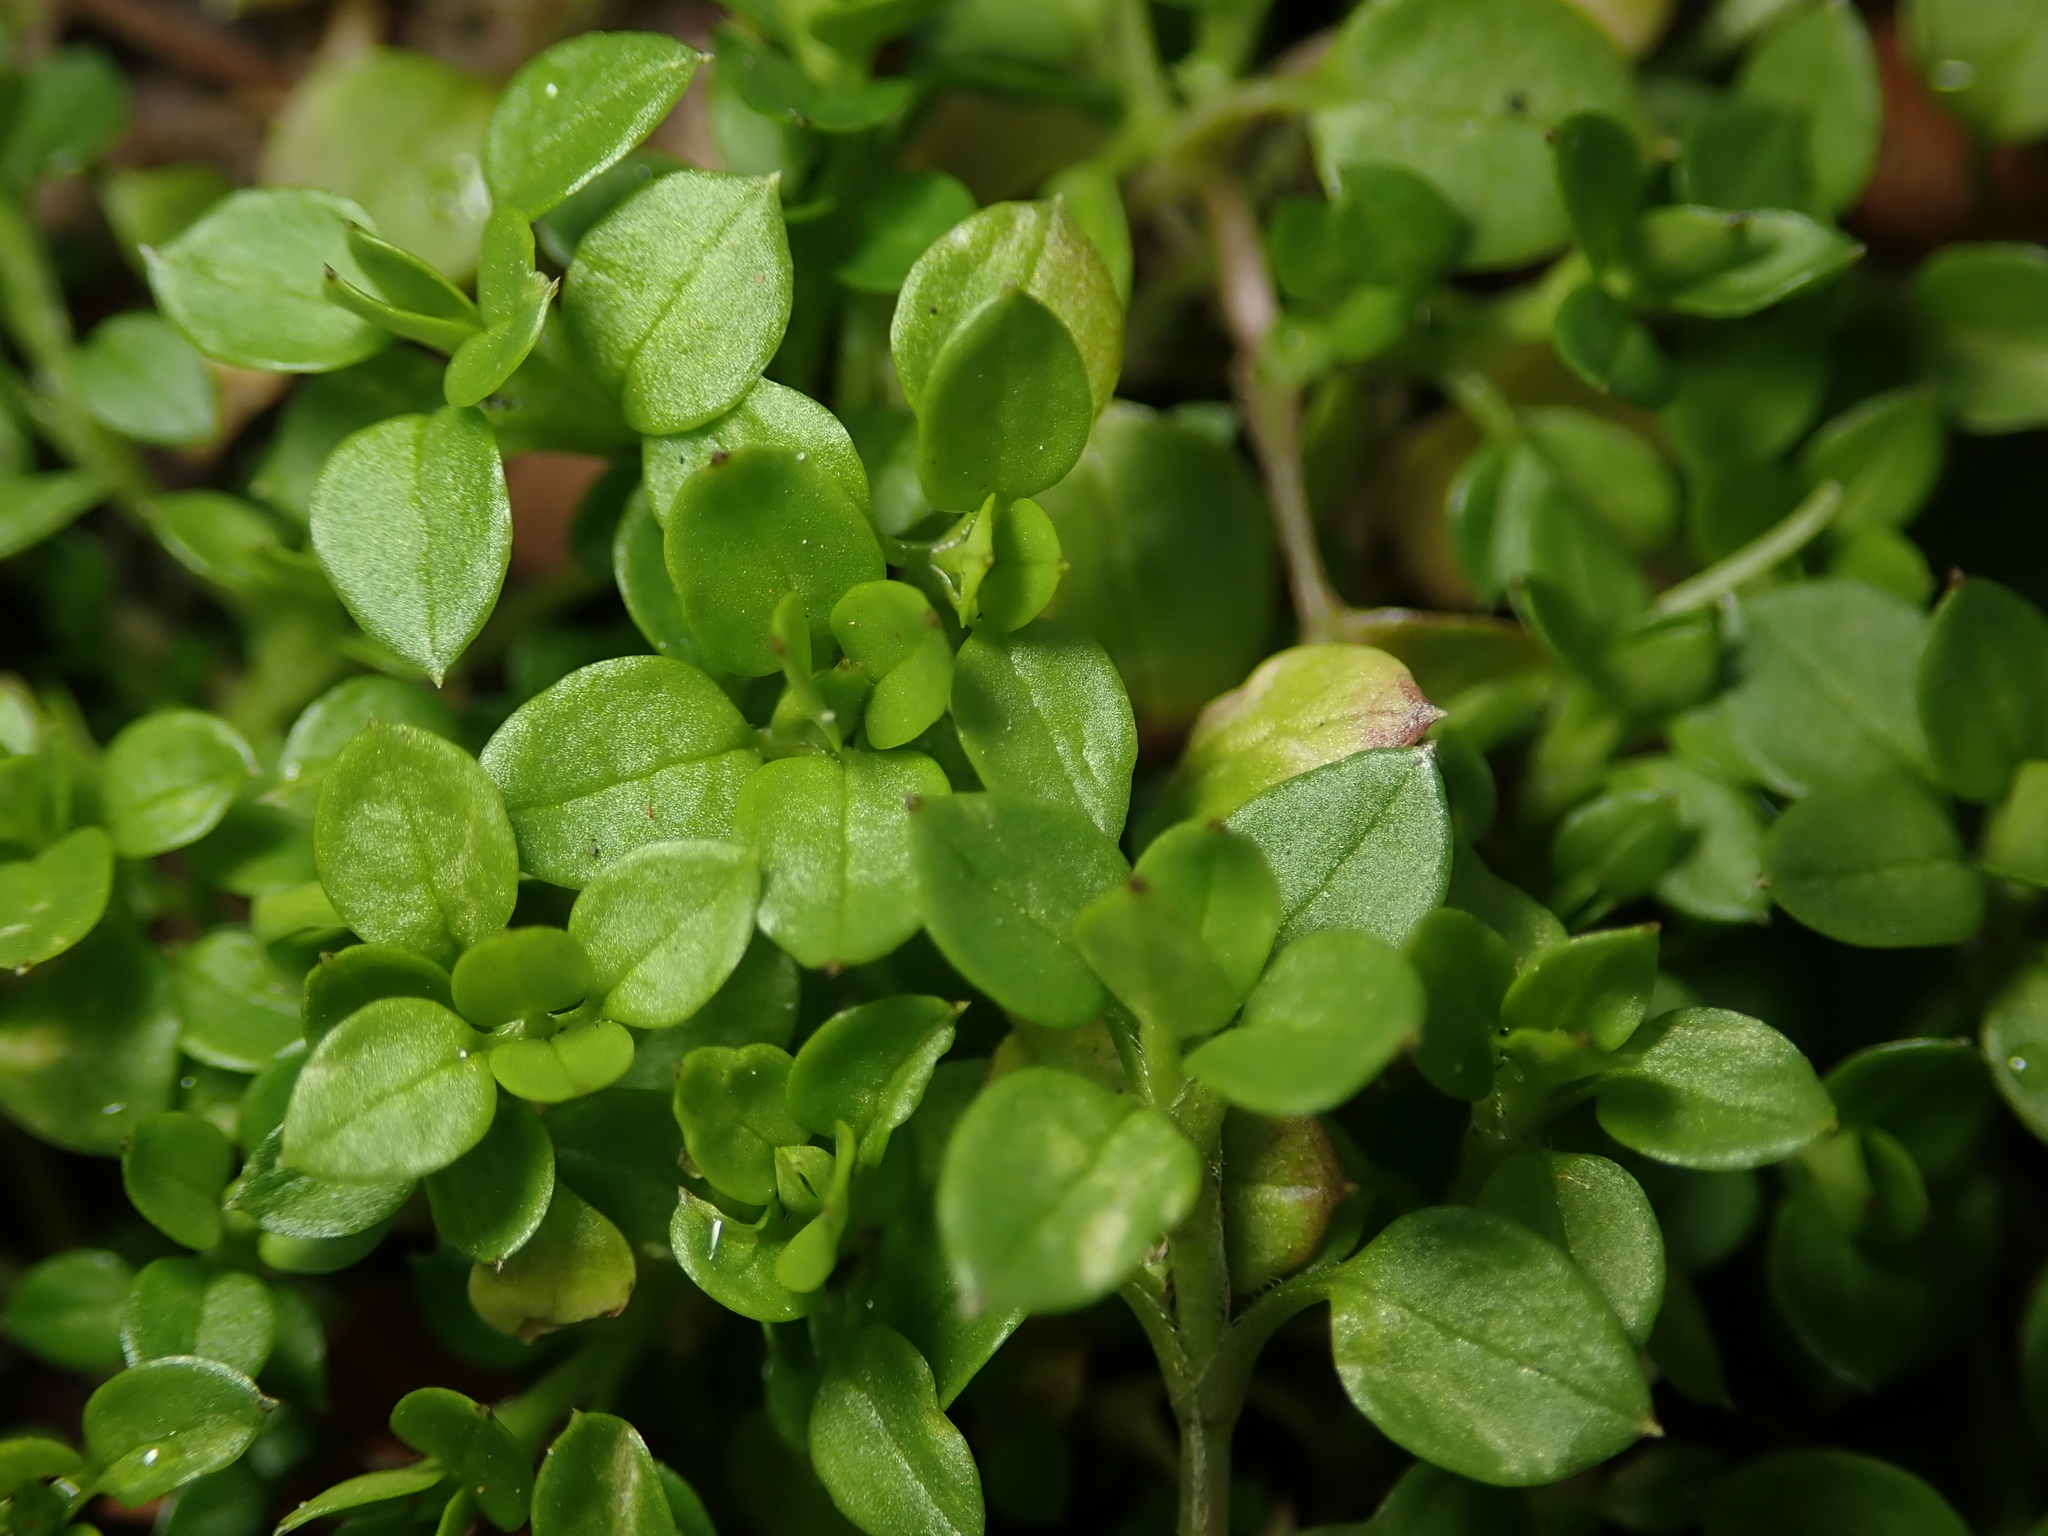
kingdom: Plantae
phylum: Tracheophyta
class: Magnoliopsida
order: Caryophyllales
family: Caryophyllaceae
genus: Stellaria
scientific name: Stellaria media
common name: Common chickweed
